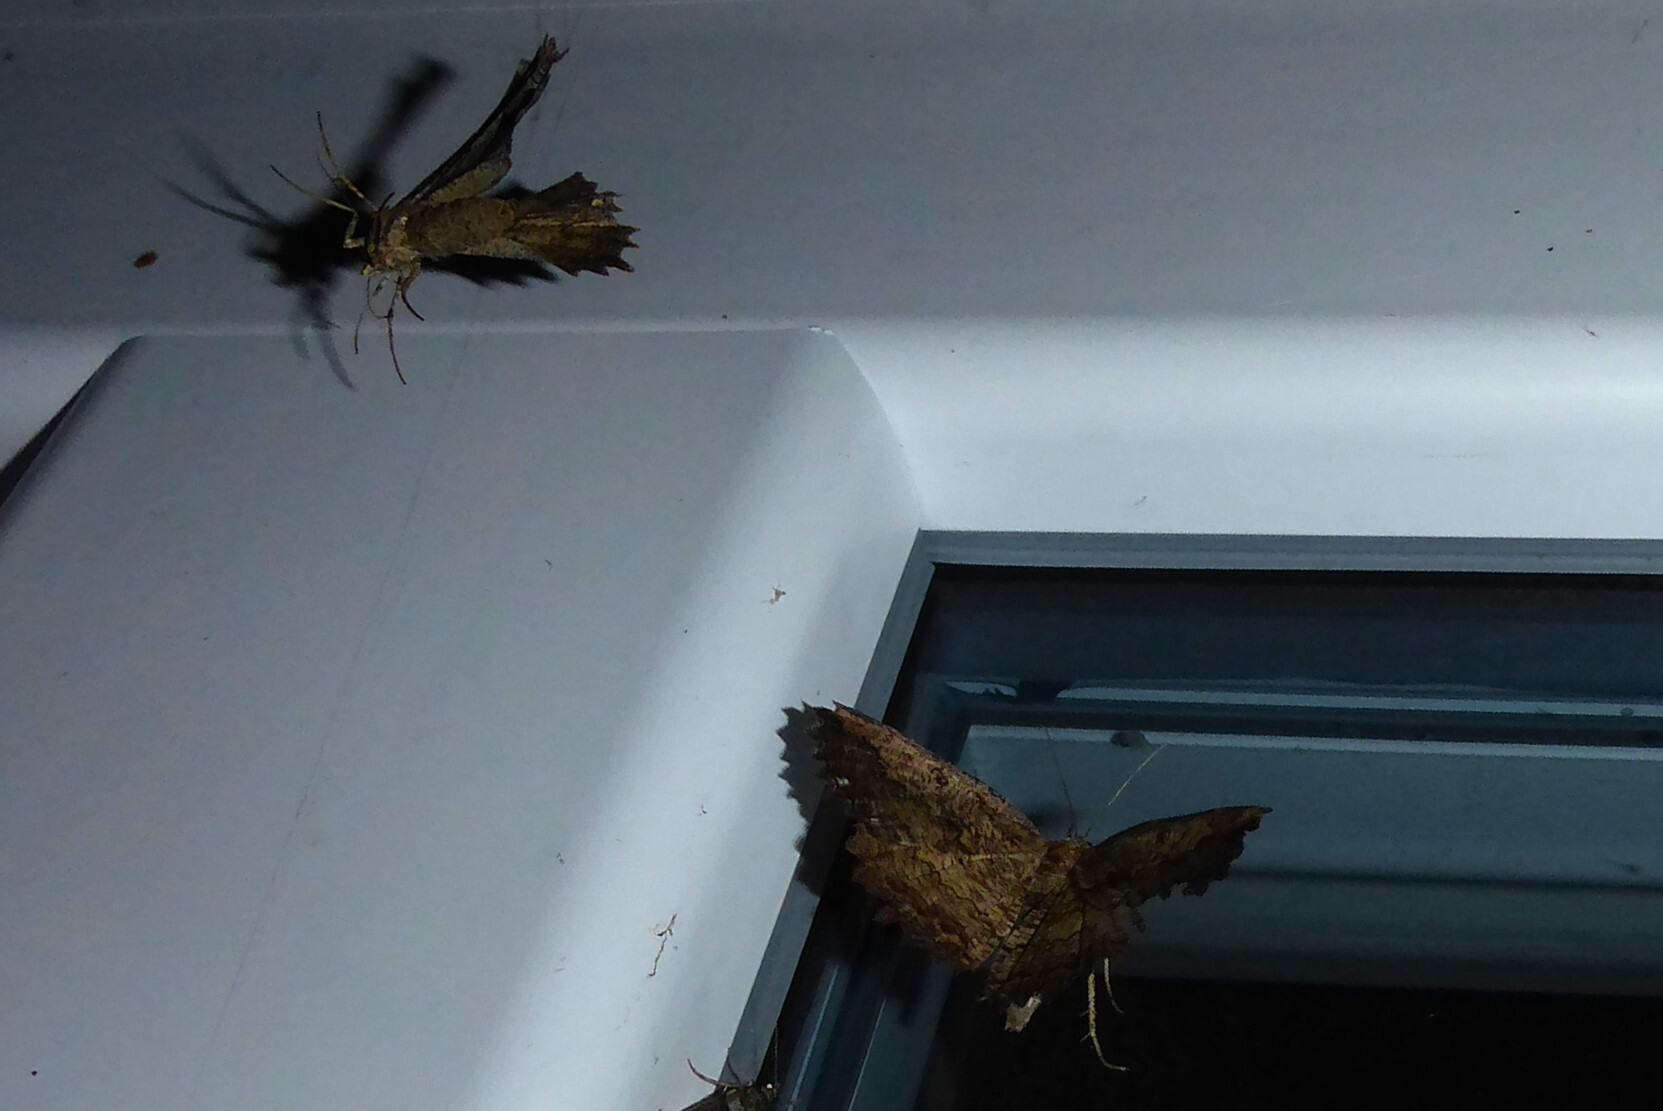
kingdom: Animalia
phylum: Arthropoda
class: Insecta
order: Lepidoptera
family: Geometridae
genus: Gellonia
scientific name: Gellonia pannularia
